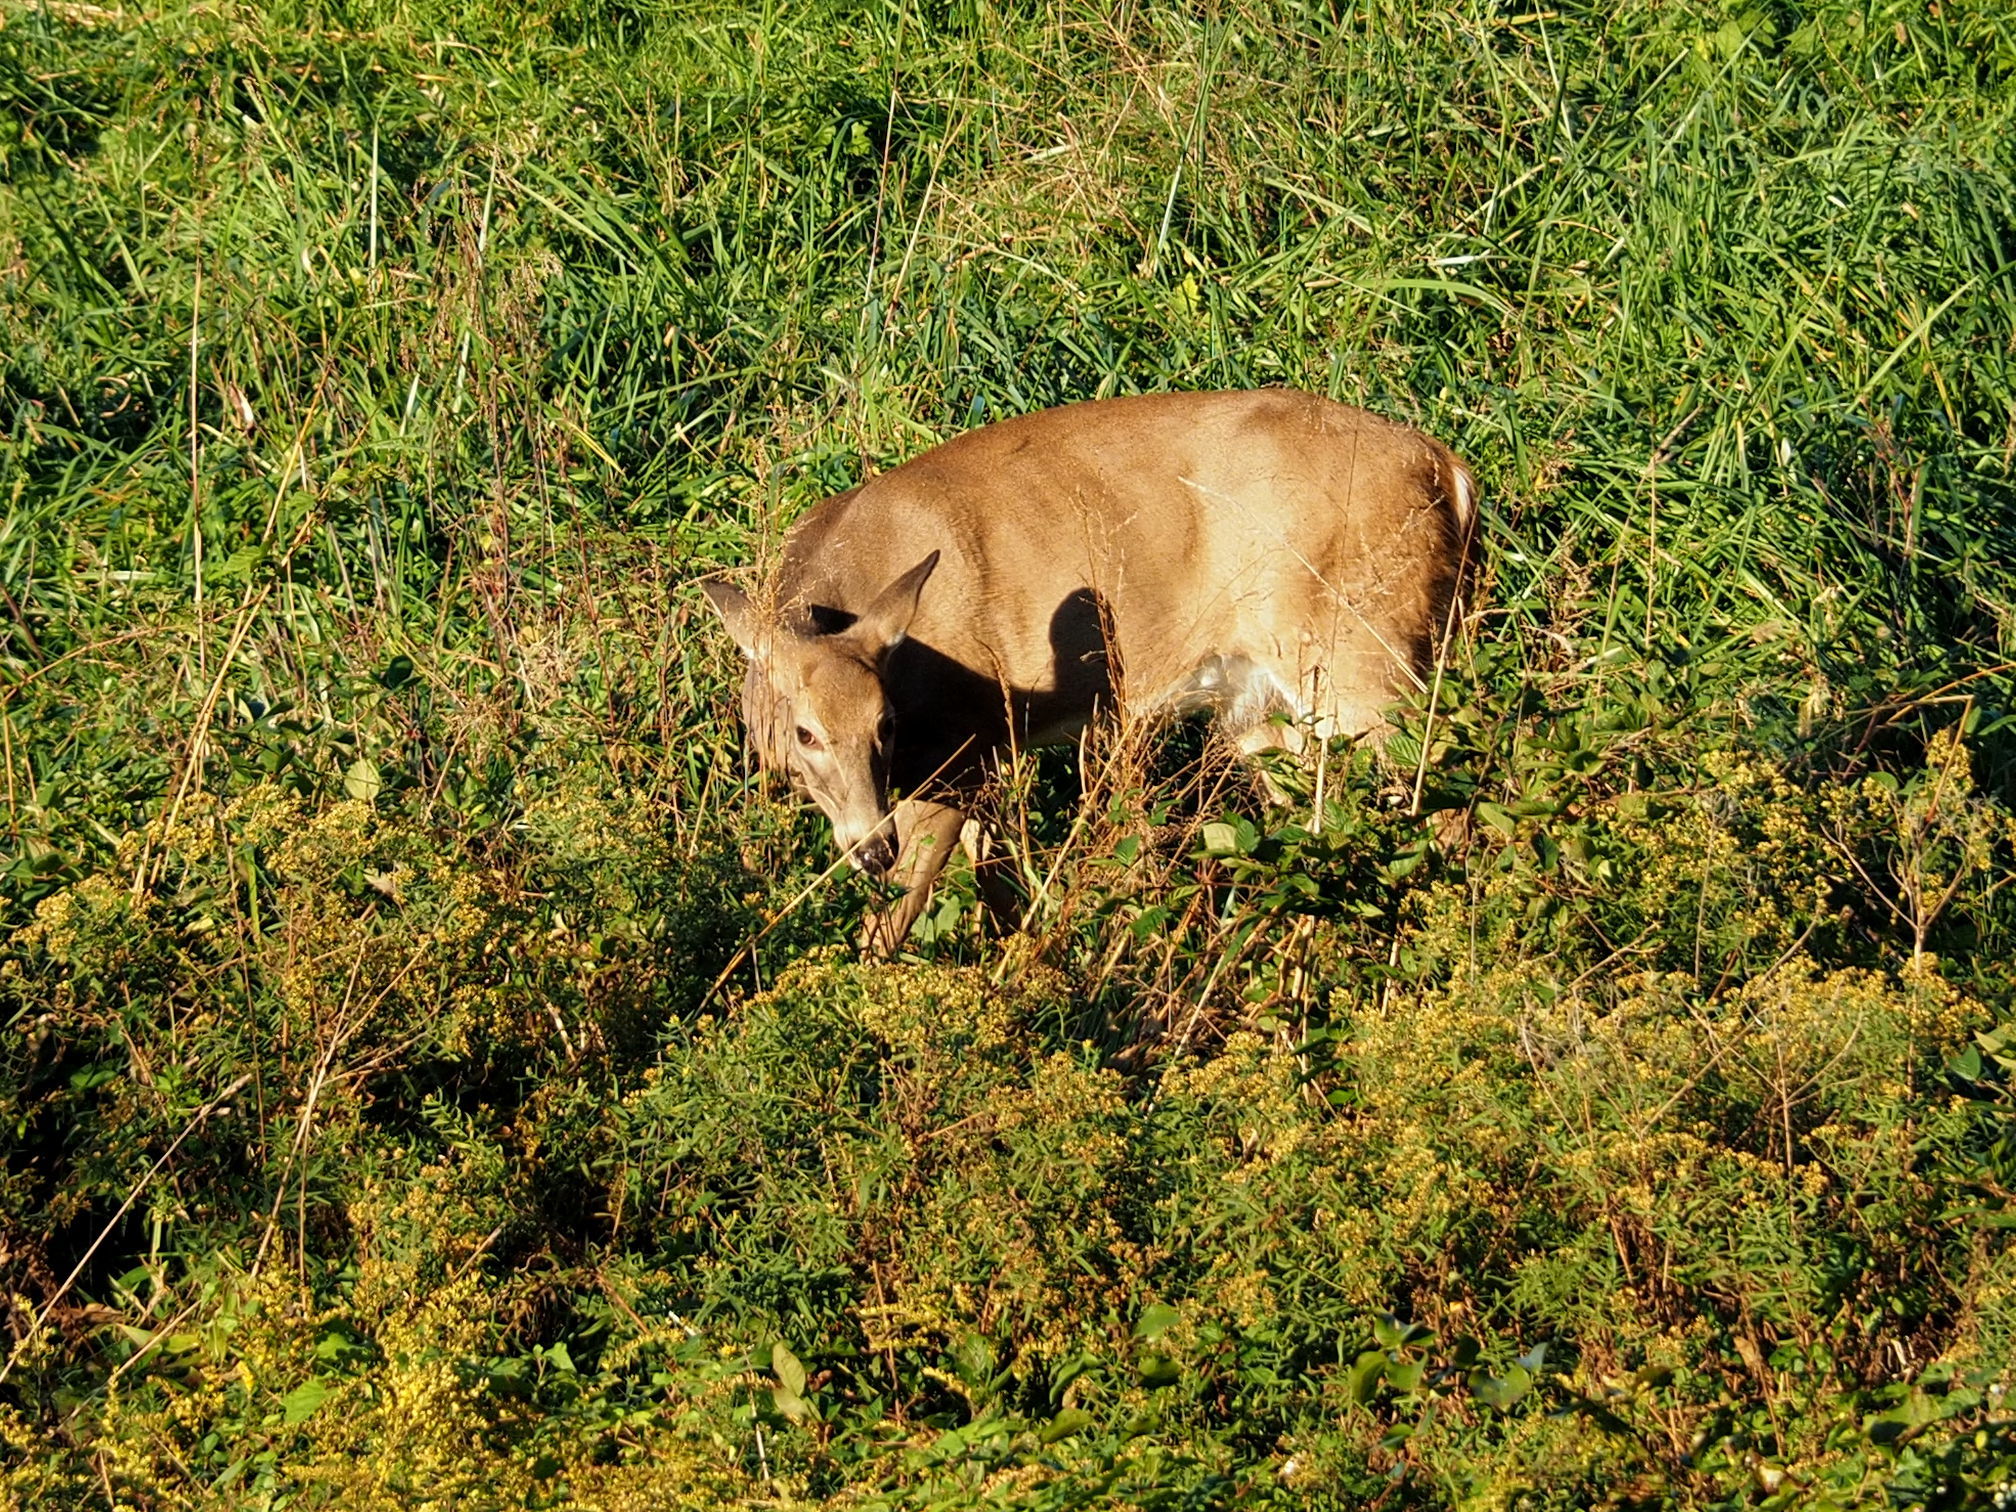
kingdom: Animalia
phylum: Chordata
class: Mammalia
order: Artiodactyla
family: Cervidae
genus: Odocoileus
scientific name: Odocoileus virginianus
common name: White-tailed deer
